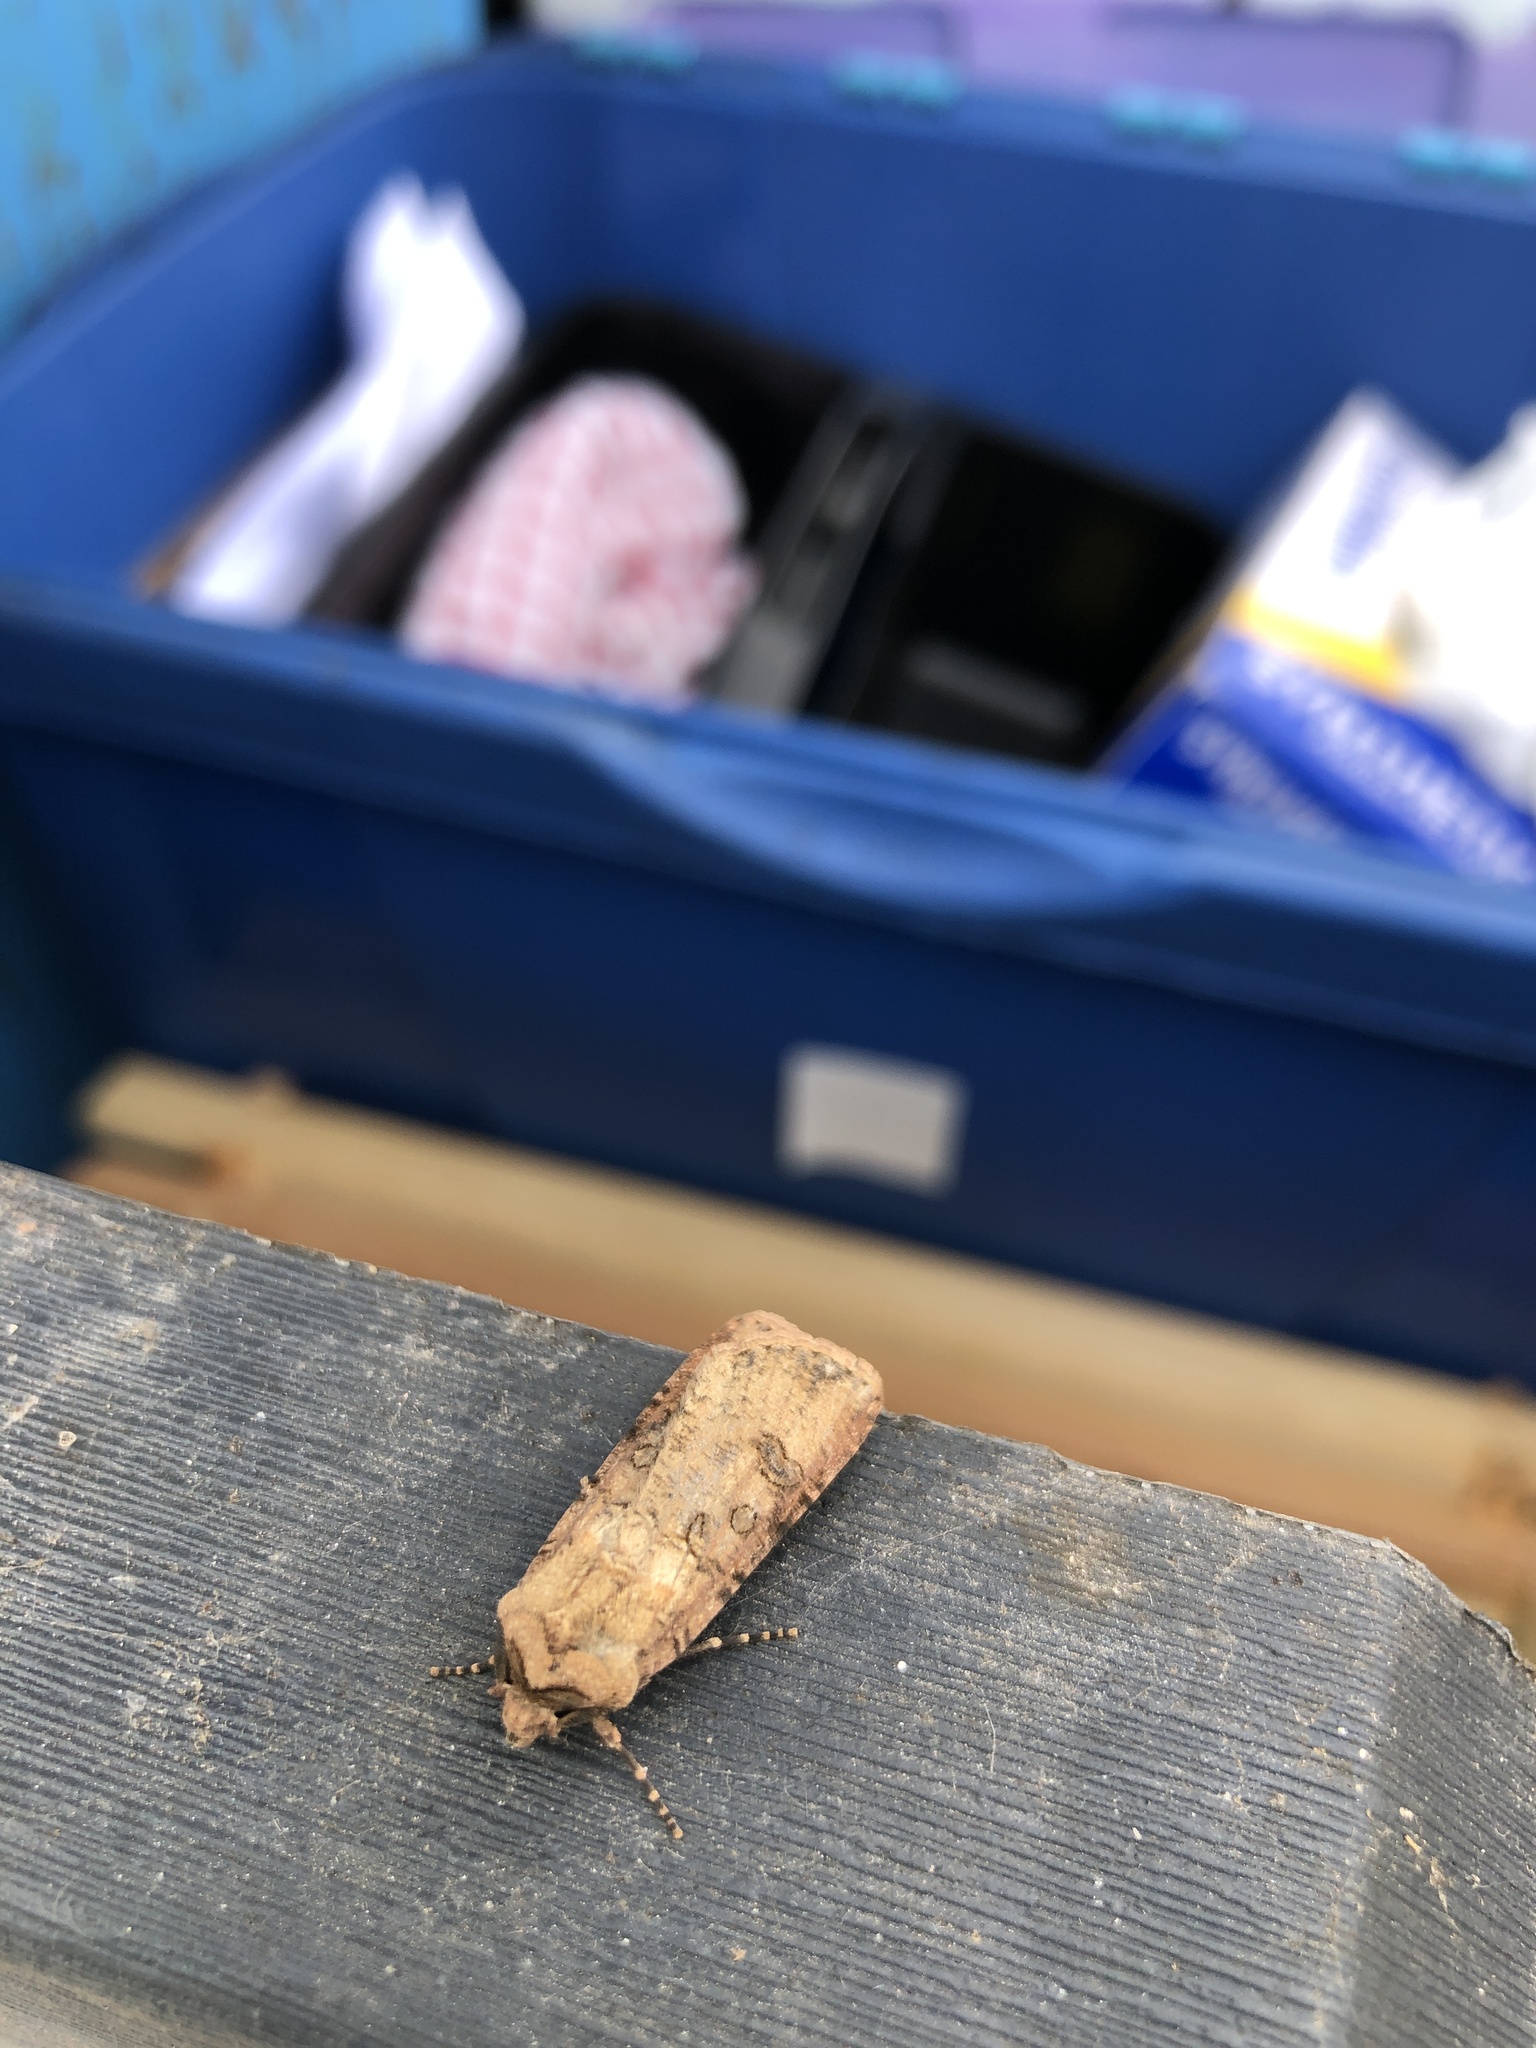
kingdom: Animalia
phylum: Arthropoda
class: Insecta
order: Lepidoptera
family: Noctuidae
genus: Agrotis
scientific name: Agrotis segetum
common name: Turnip moth
